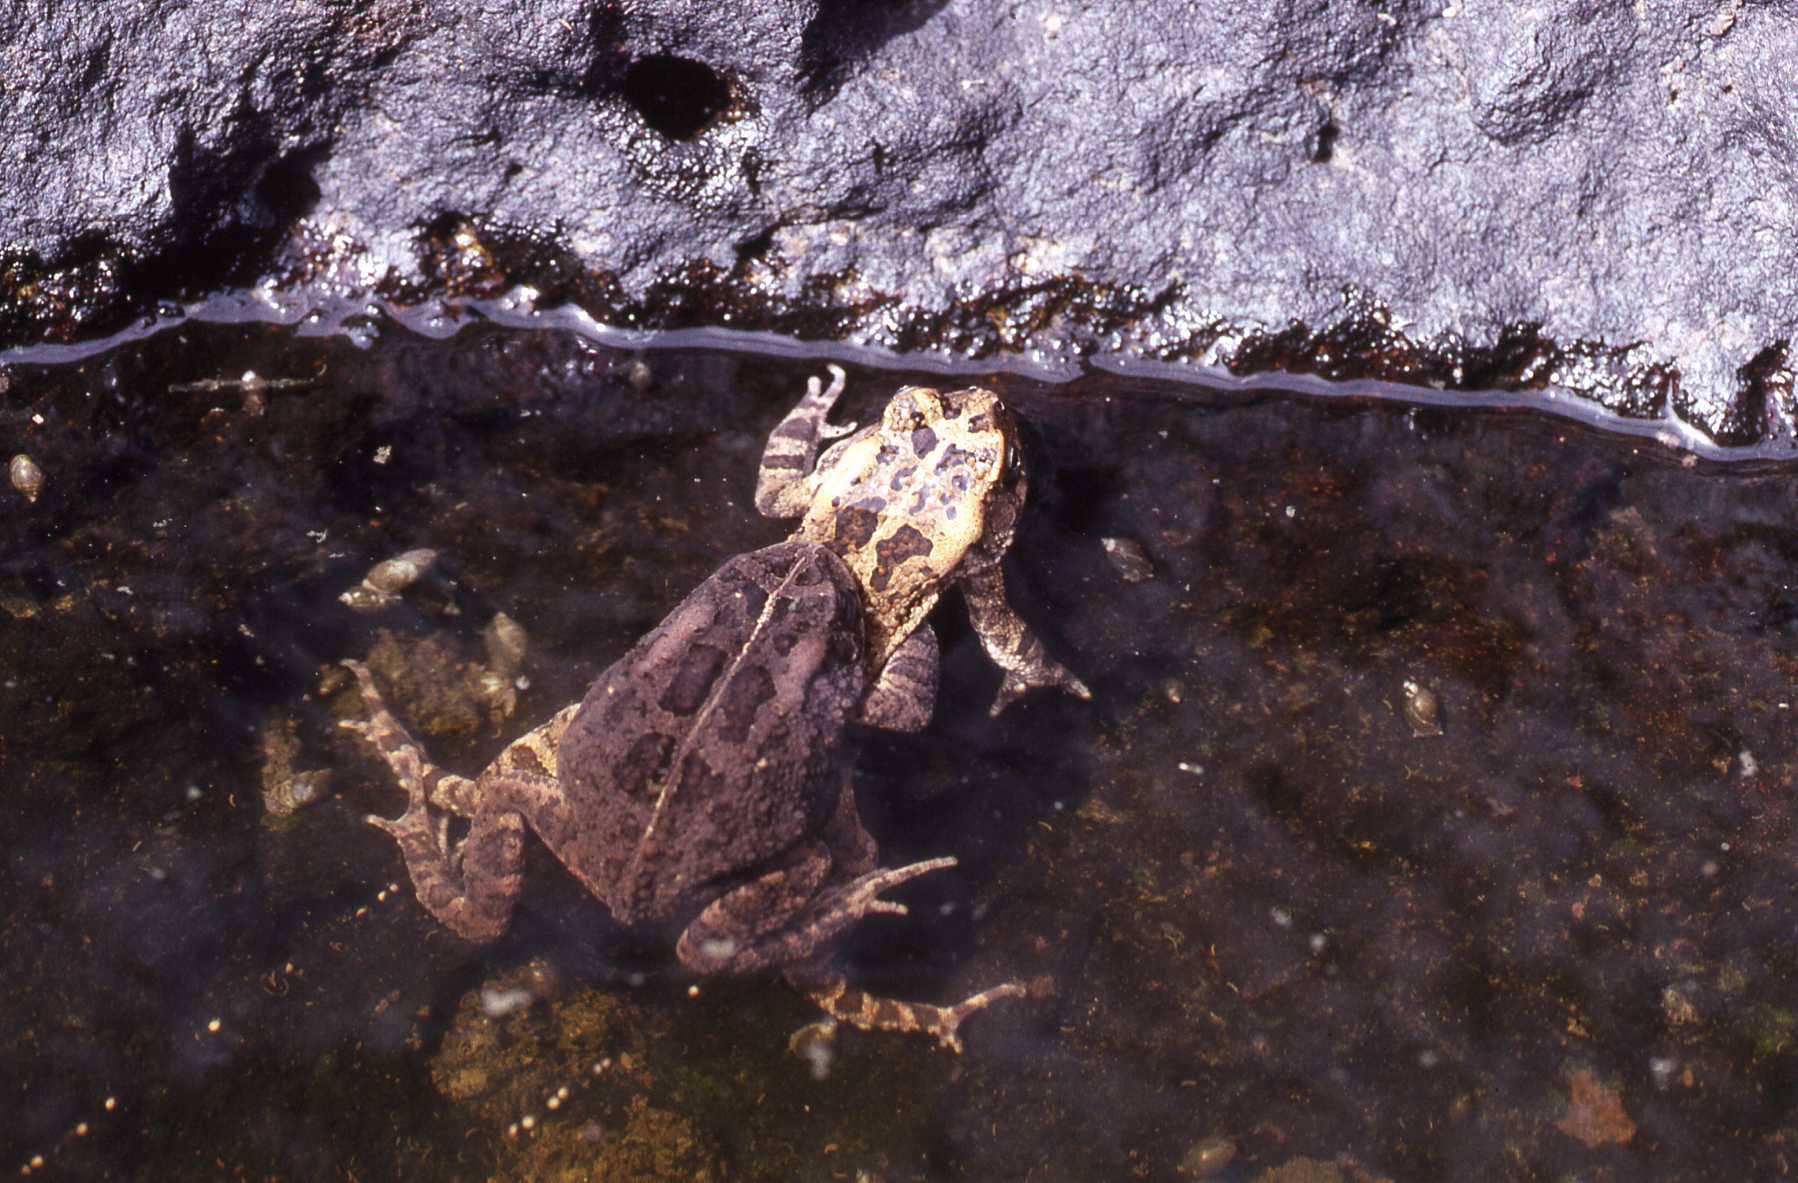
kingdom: Animalia
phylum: Chordata
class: Amphibia
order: Anura
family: Bufonidae
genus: Sclerophrys
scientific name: Sclerophrys gutturalis
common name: African common toad
